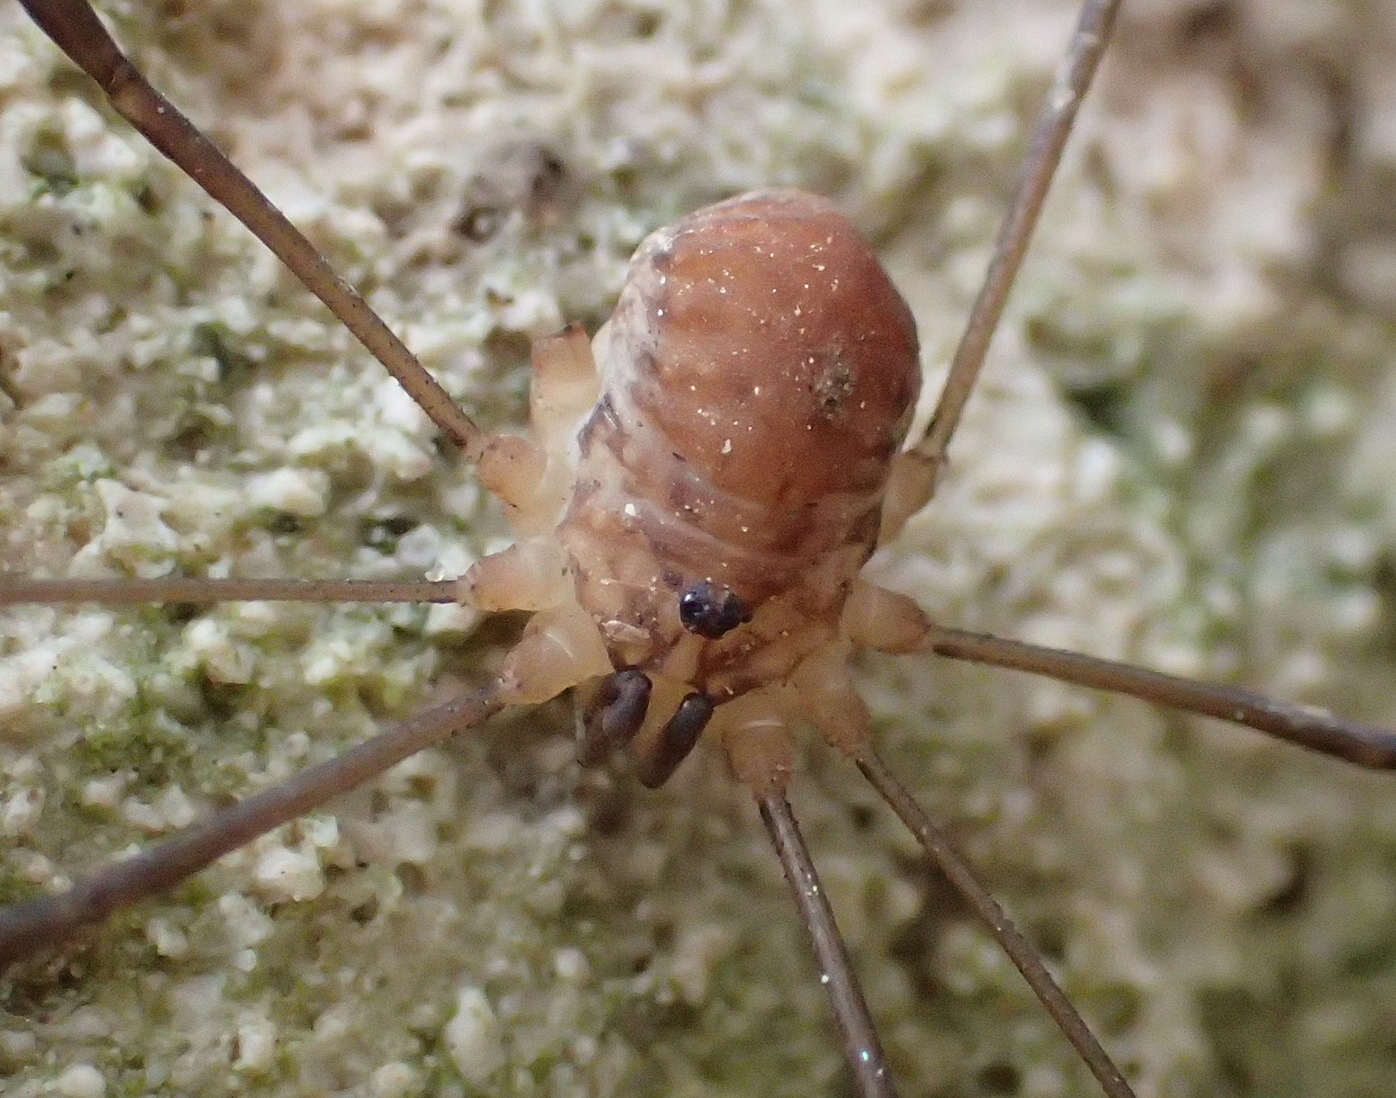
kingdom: Animalia
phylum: Arthropoda
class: Arachnida
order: Opiliones
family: Sclerosomatidae
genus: Nelima
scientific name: Nelima doriae
